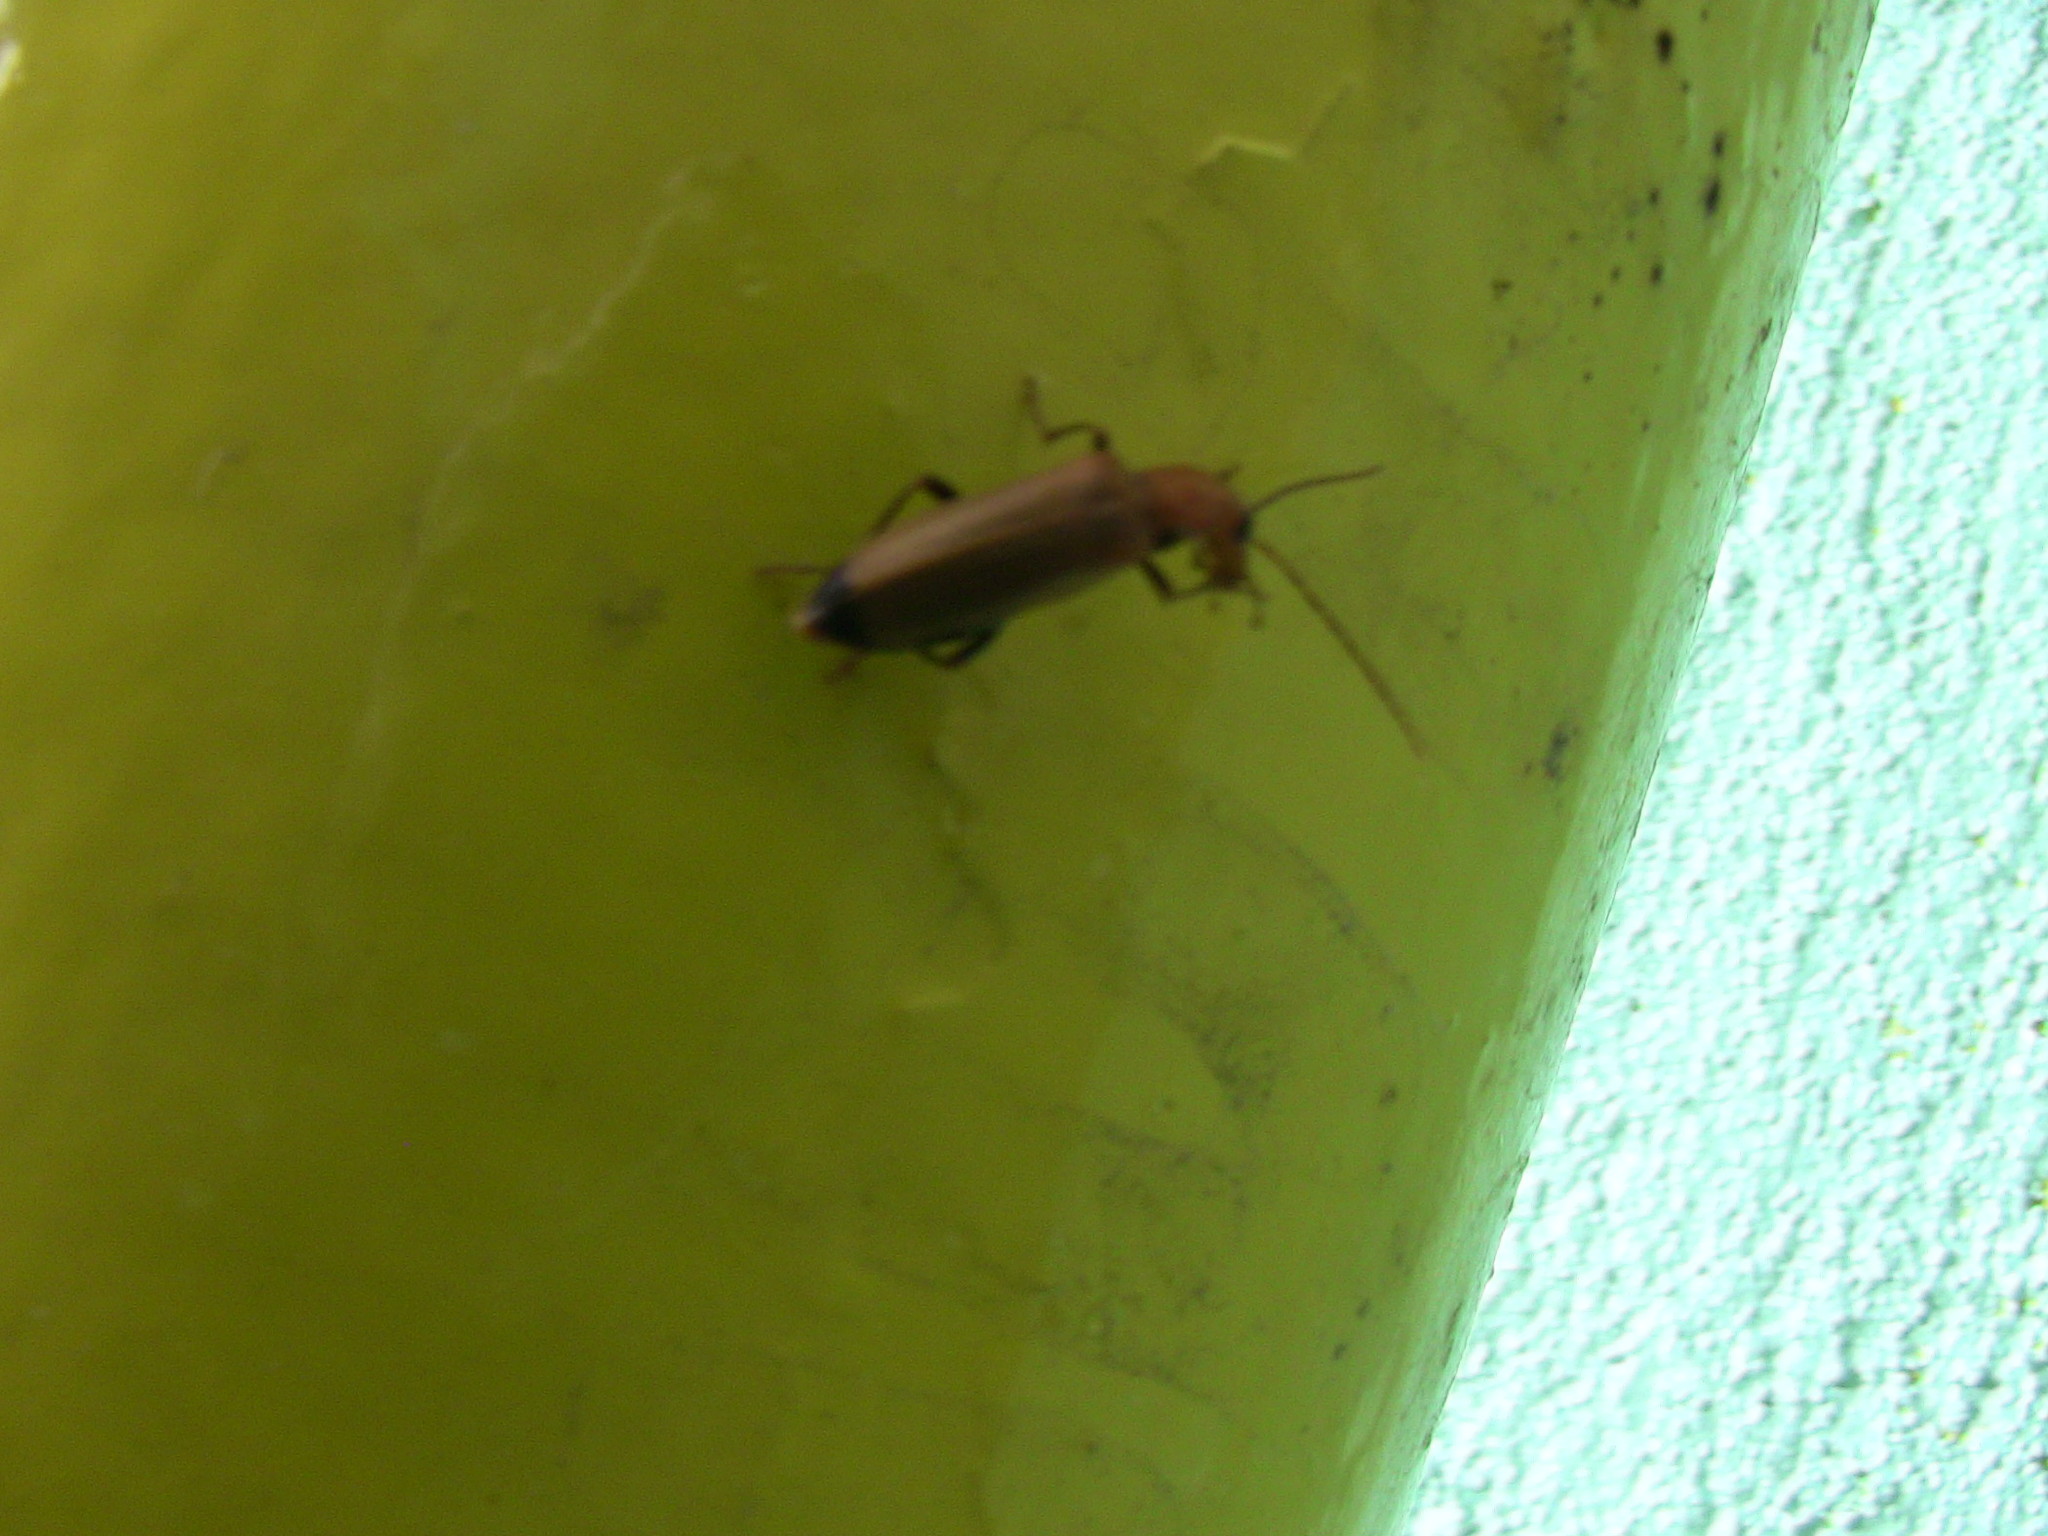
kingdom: Animalia
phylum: Arthropoda
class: Insecta
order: Coleoptera
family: Oedemeridae
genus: Nacerdes
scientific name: Nacerdes melanura
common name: Wharf borer
